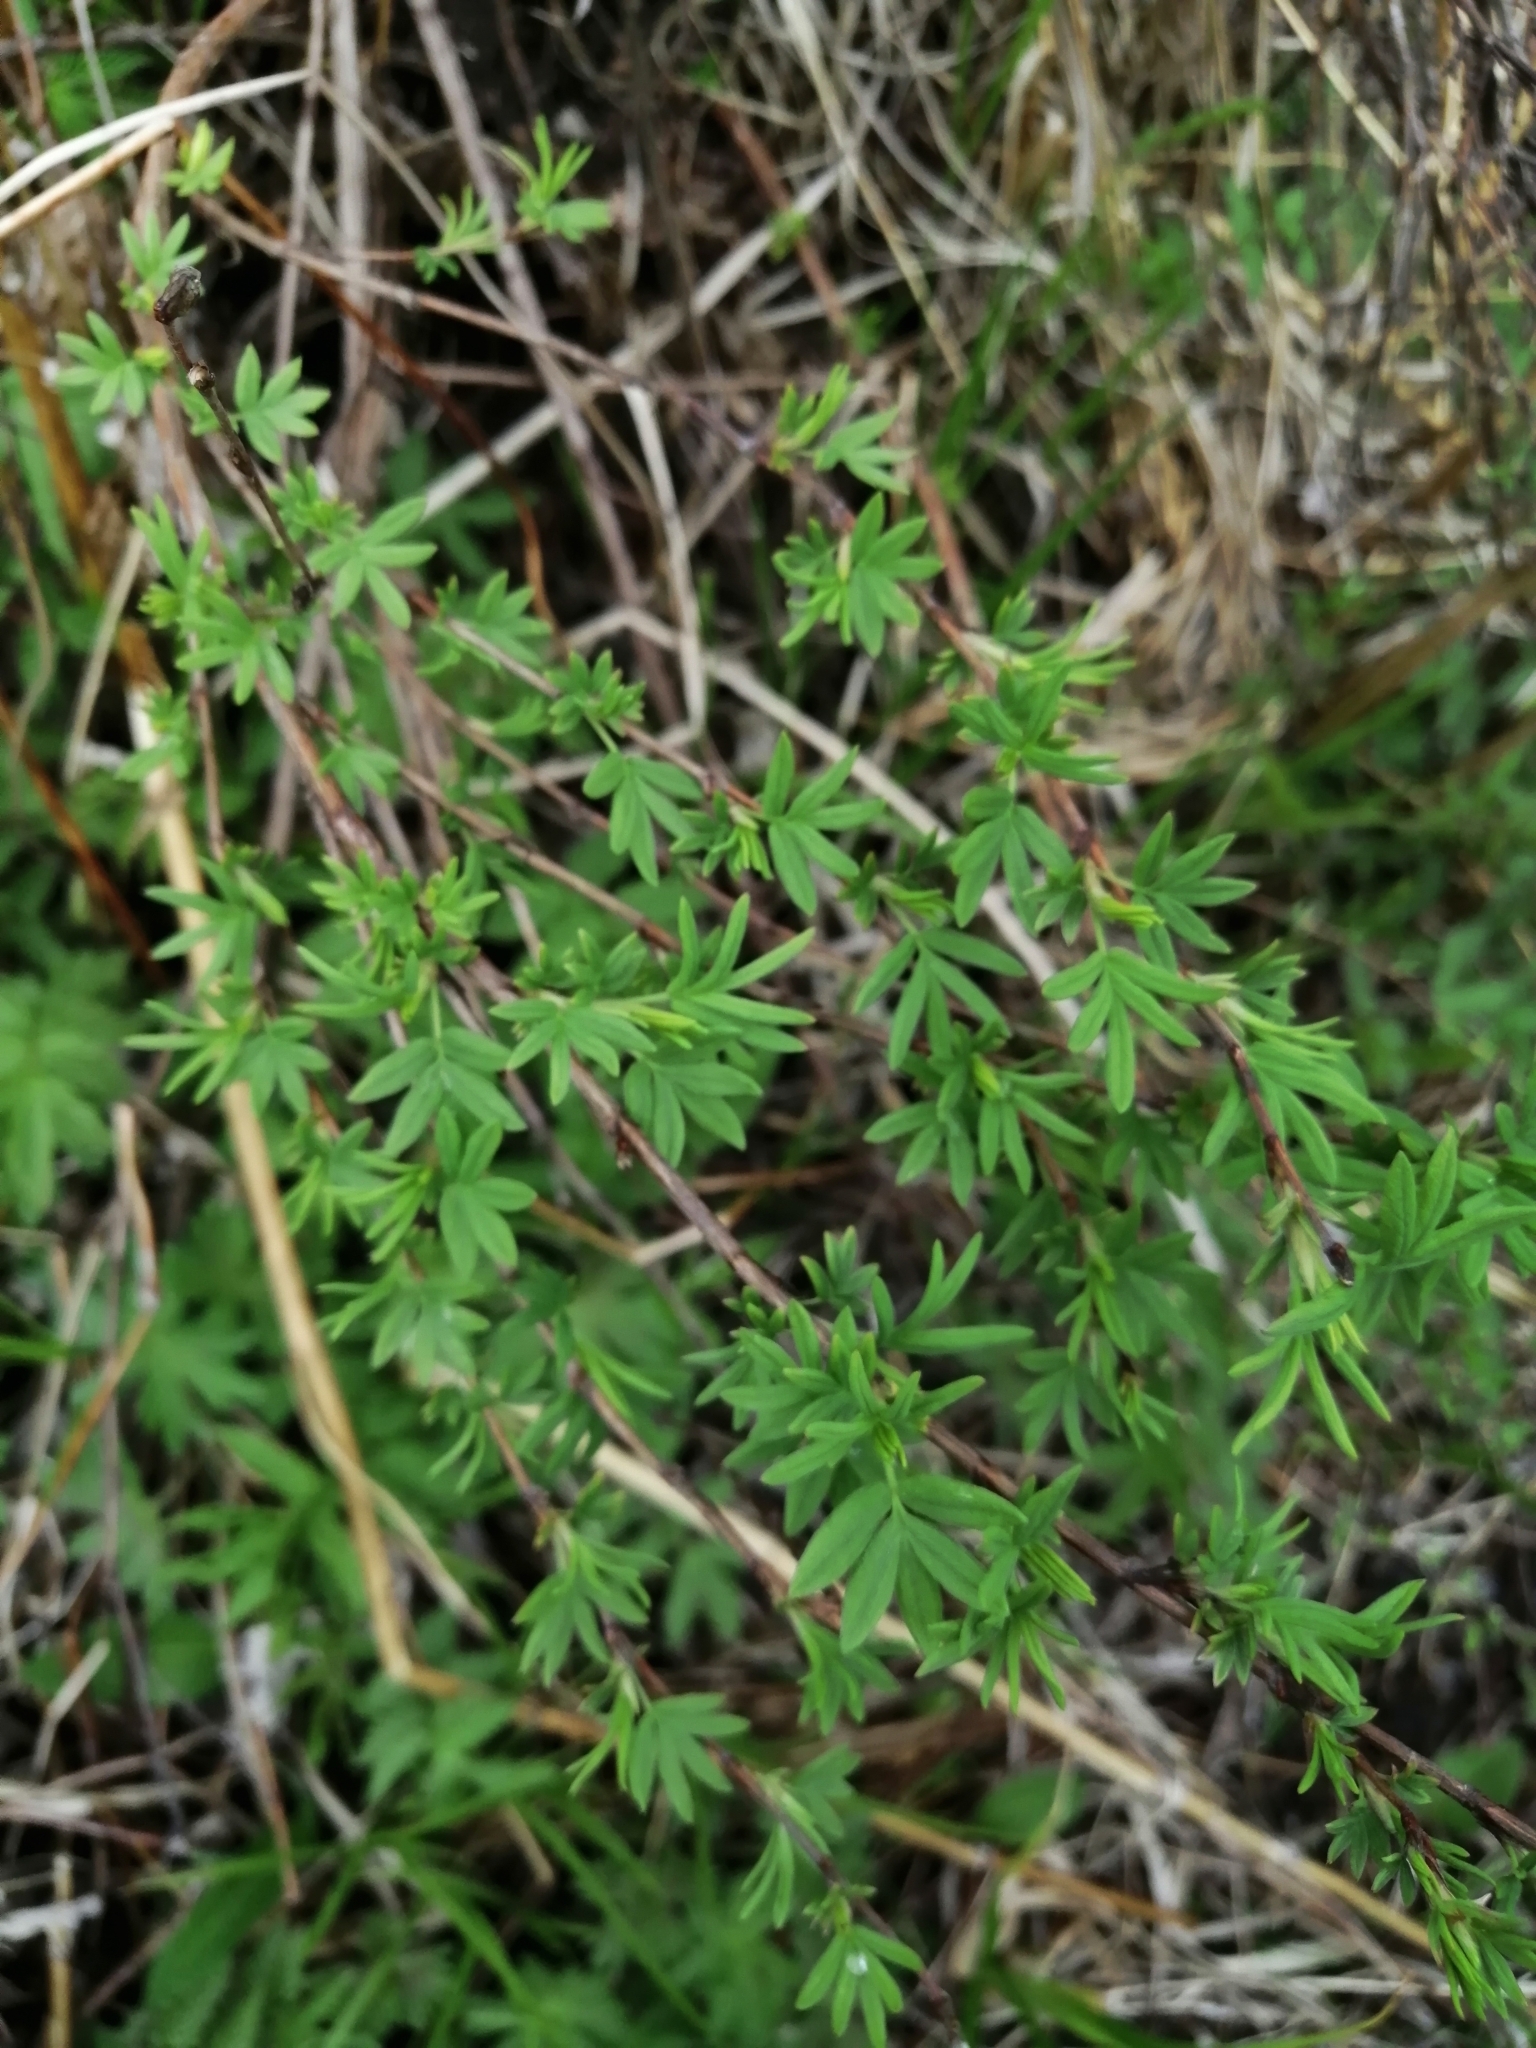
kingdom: Plantae
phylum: Tracheophyta
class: Magnoliopsida
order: Rosales
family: Rosaceae
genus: Dasiphora
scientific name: Dasiphora fruticosa
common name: Shrubby cinquefoil
